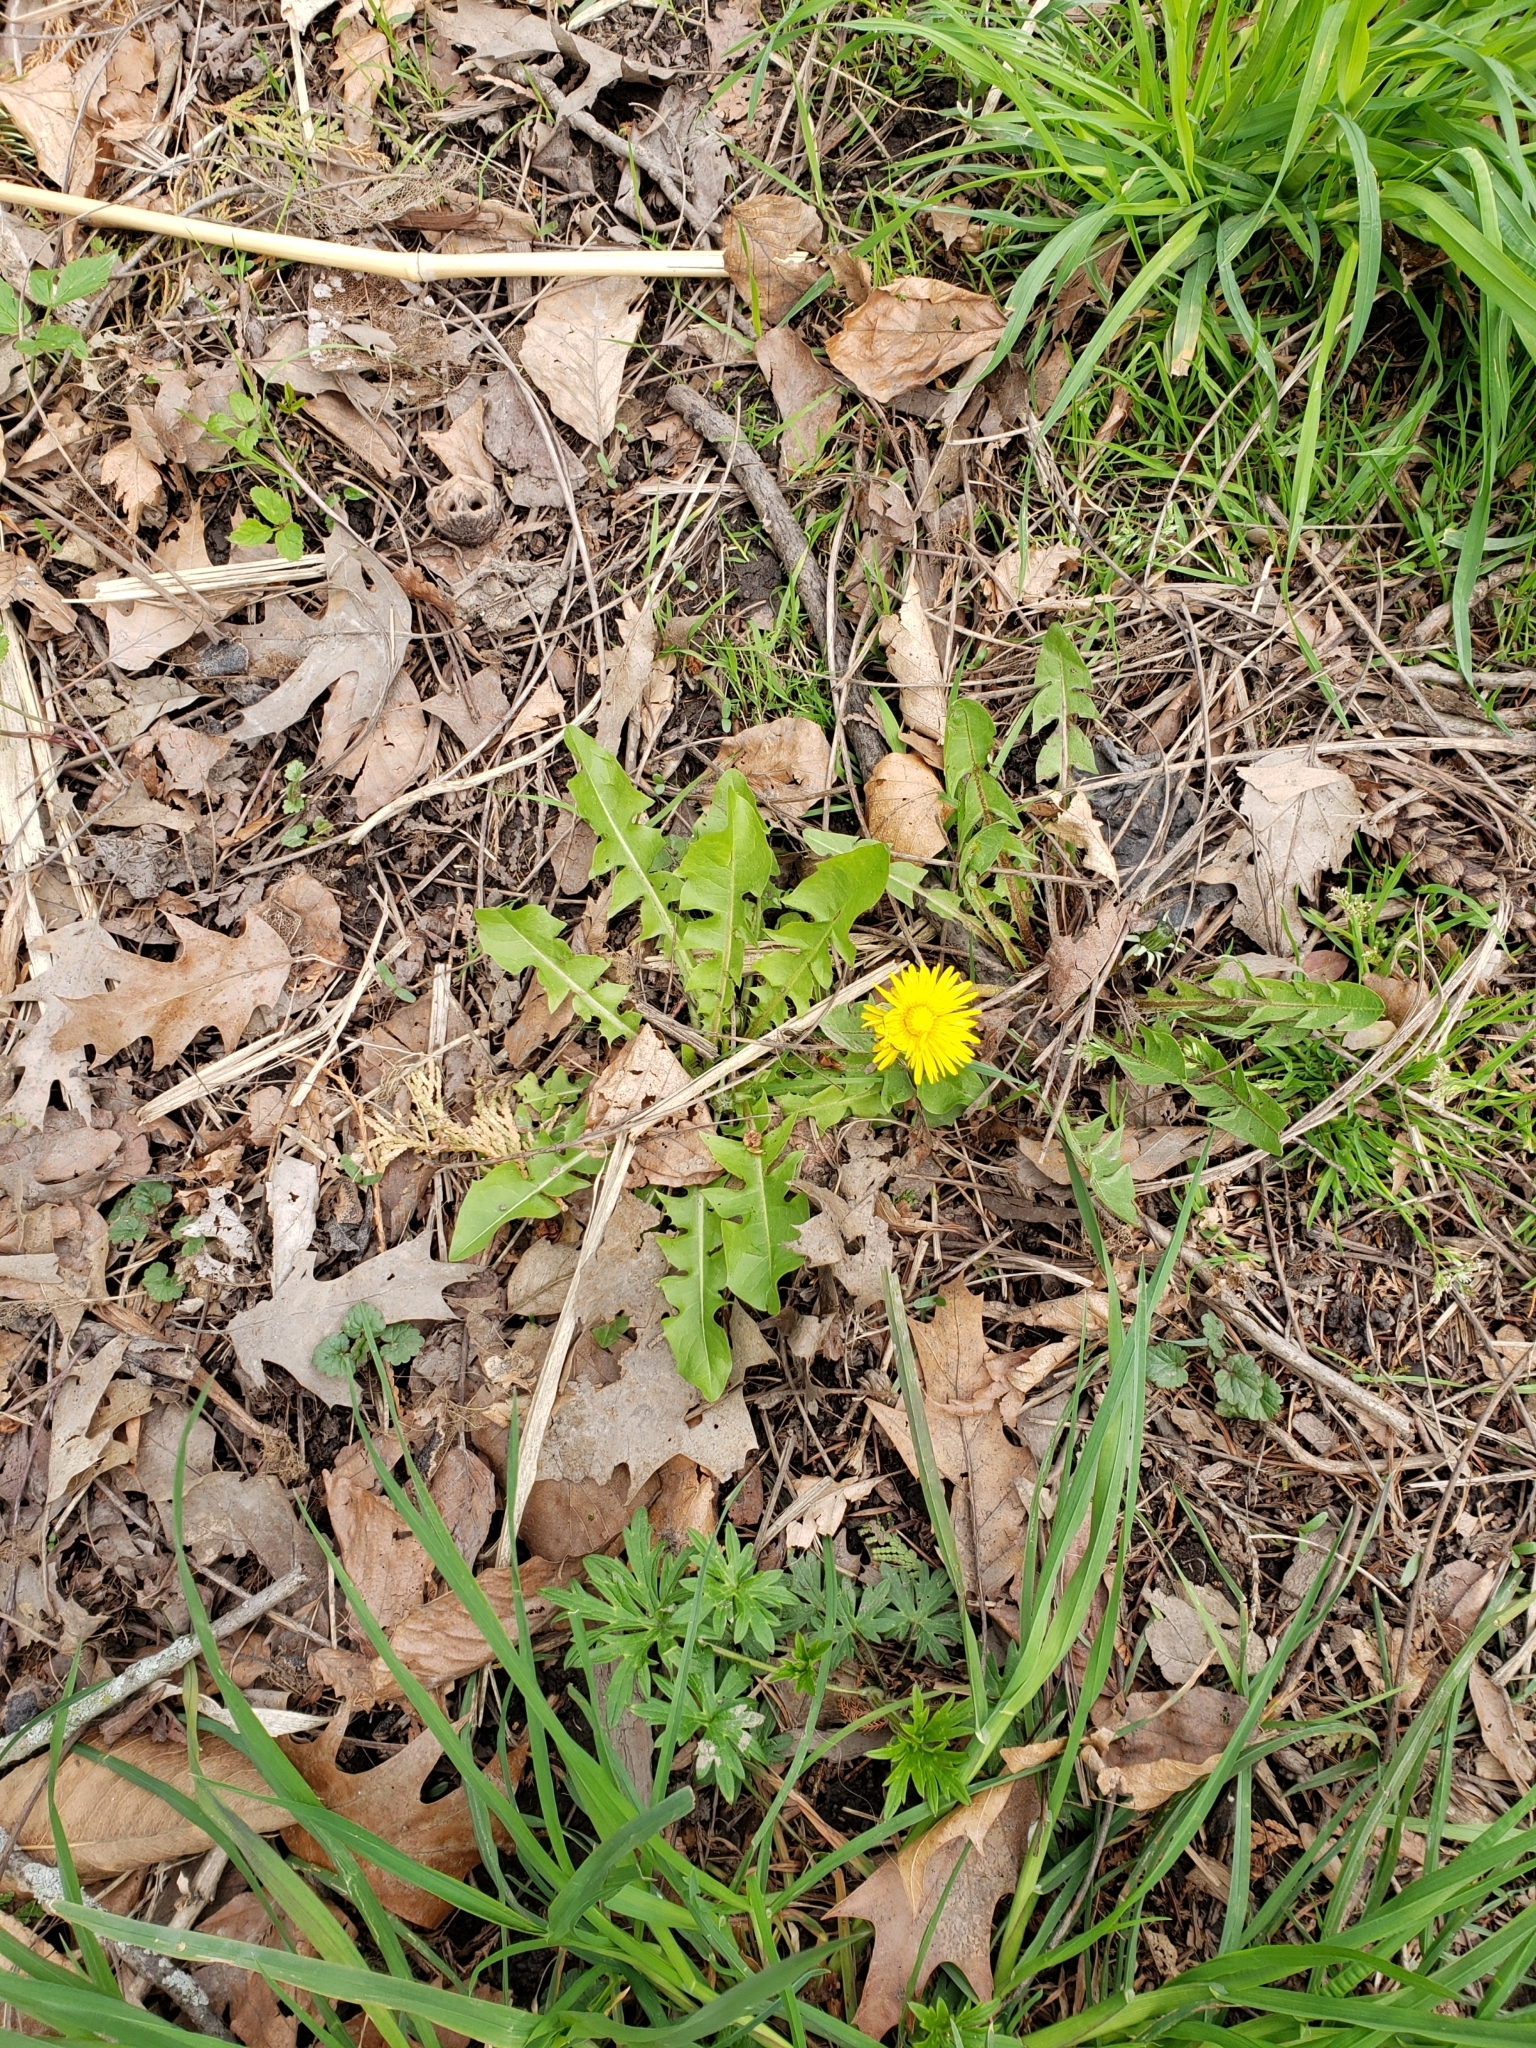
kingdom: Plantae
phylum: Tracheophyta
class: Magnoliopsida
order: Asterales
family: Asteraceae
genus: Taraxacum
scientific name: Taraxacum officinale
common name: Common dandelion
